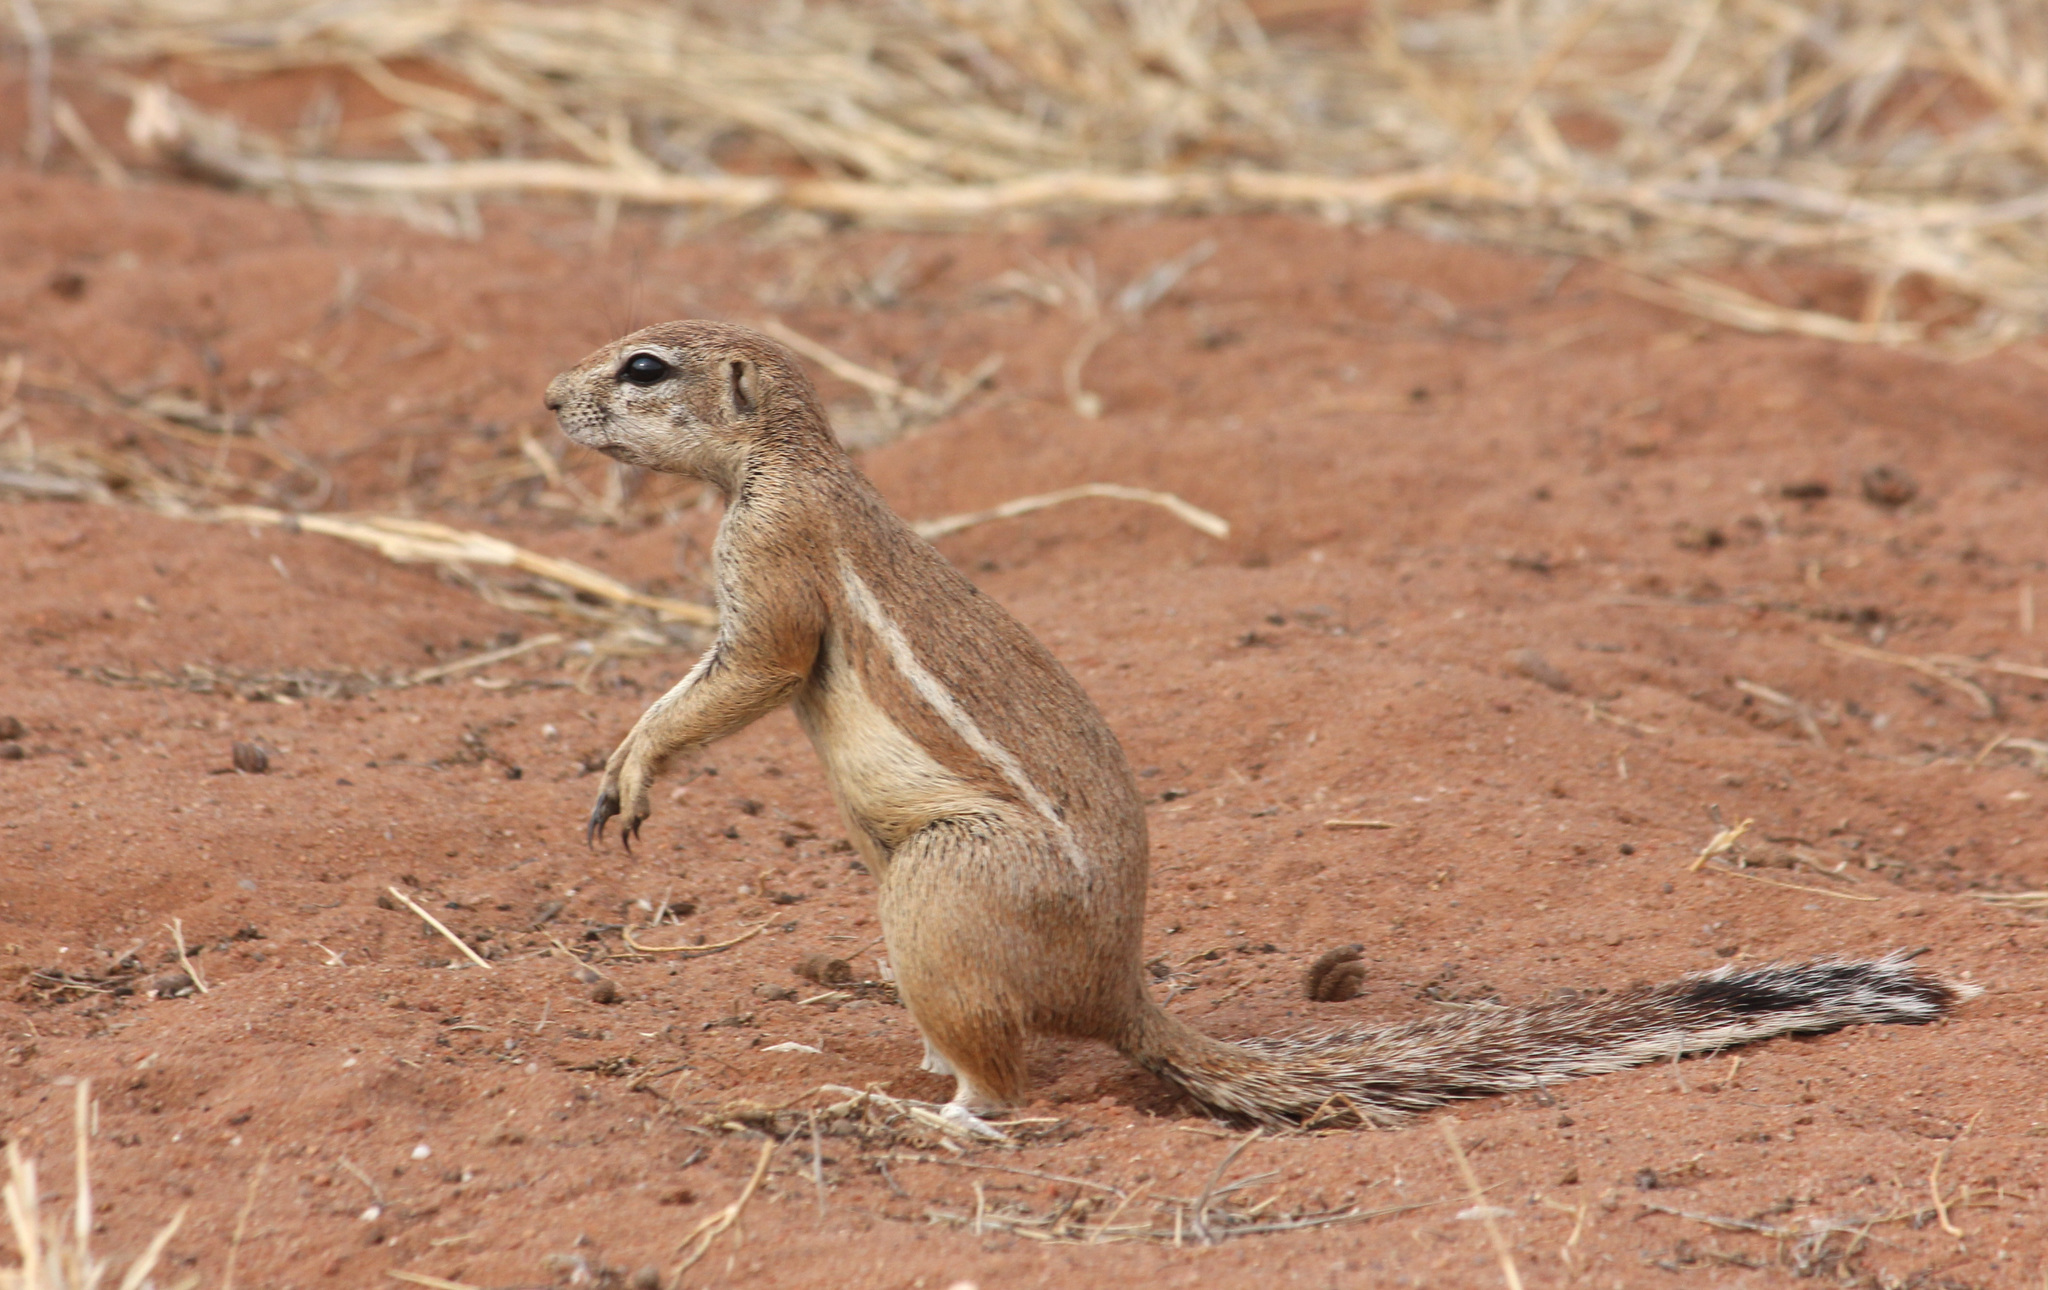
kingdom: Animalia
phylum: Chordata
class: Mammalia
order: Rodentia
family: Sciuridae
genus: Xerus
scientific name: Xerus inauris
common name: South african ground squirrel
